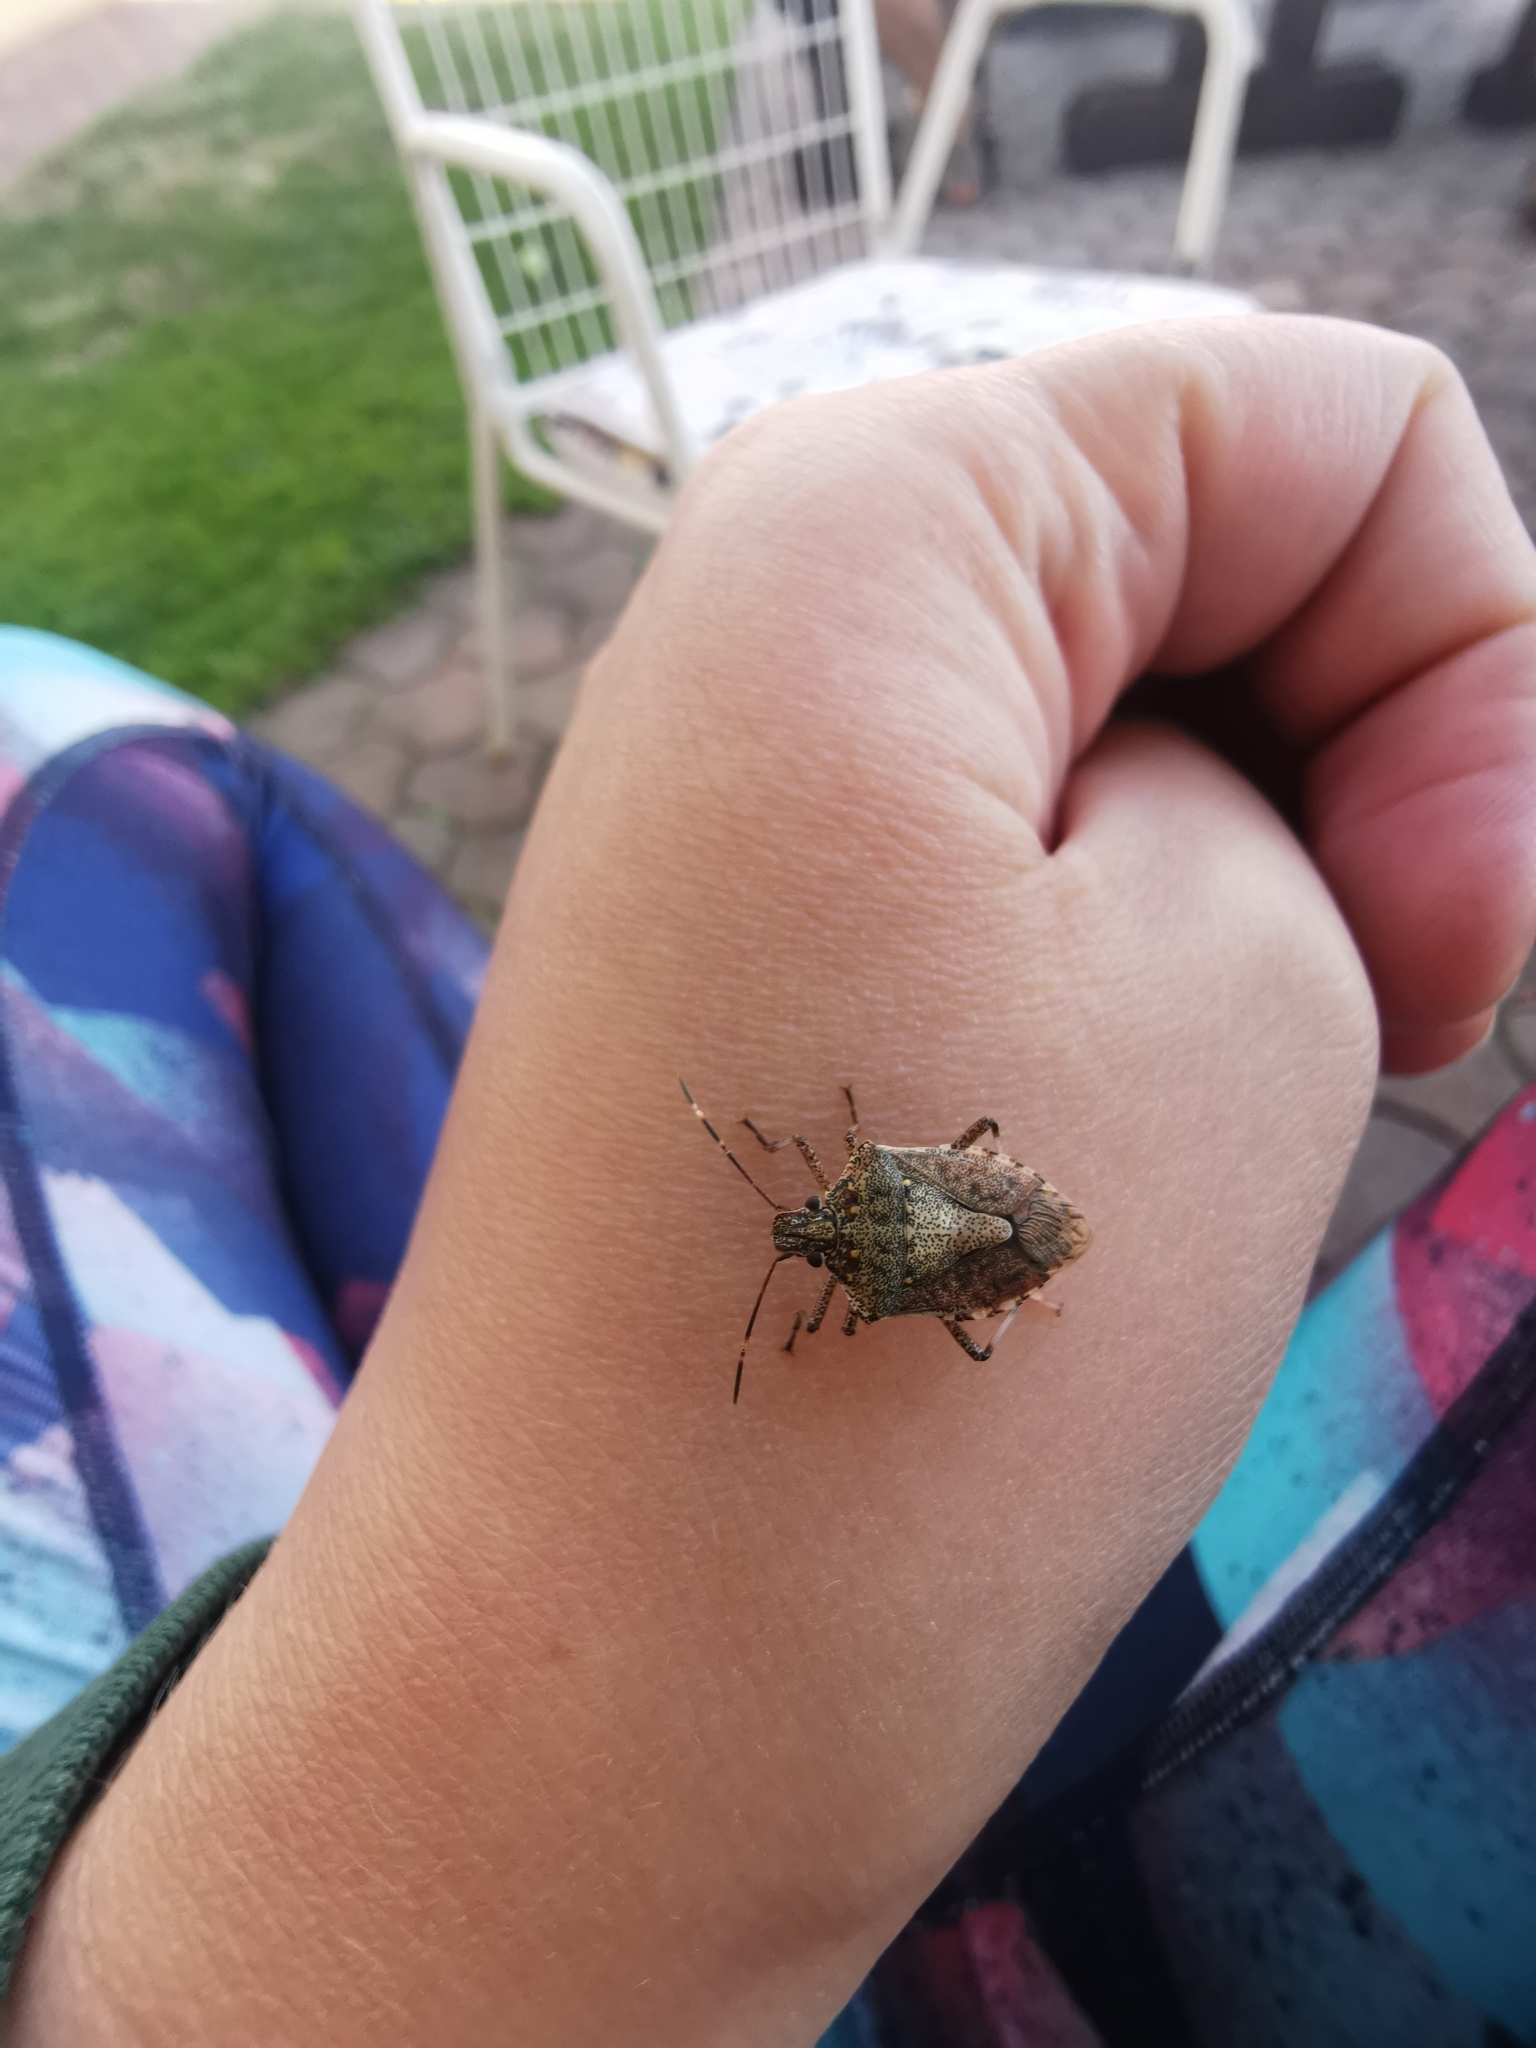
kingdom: Animalia
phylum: Arthropoda
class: Insecta
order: Hemiptera
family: Pentatomidae
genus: Halyomorpha
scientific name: Halyomorpha halys
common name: Brown marmorated stink bug
